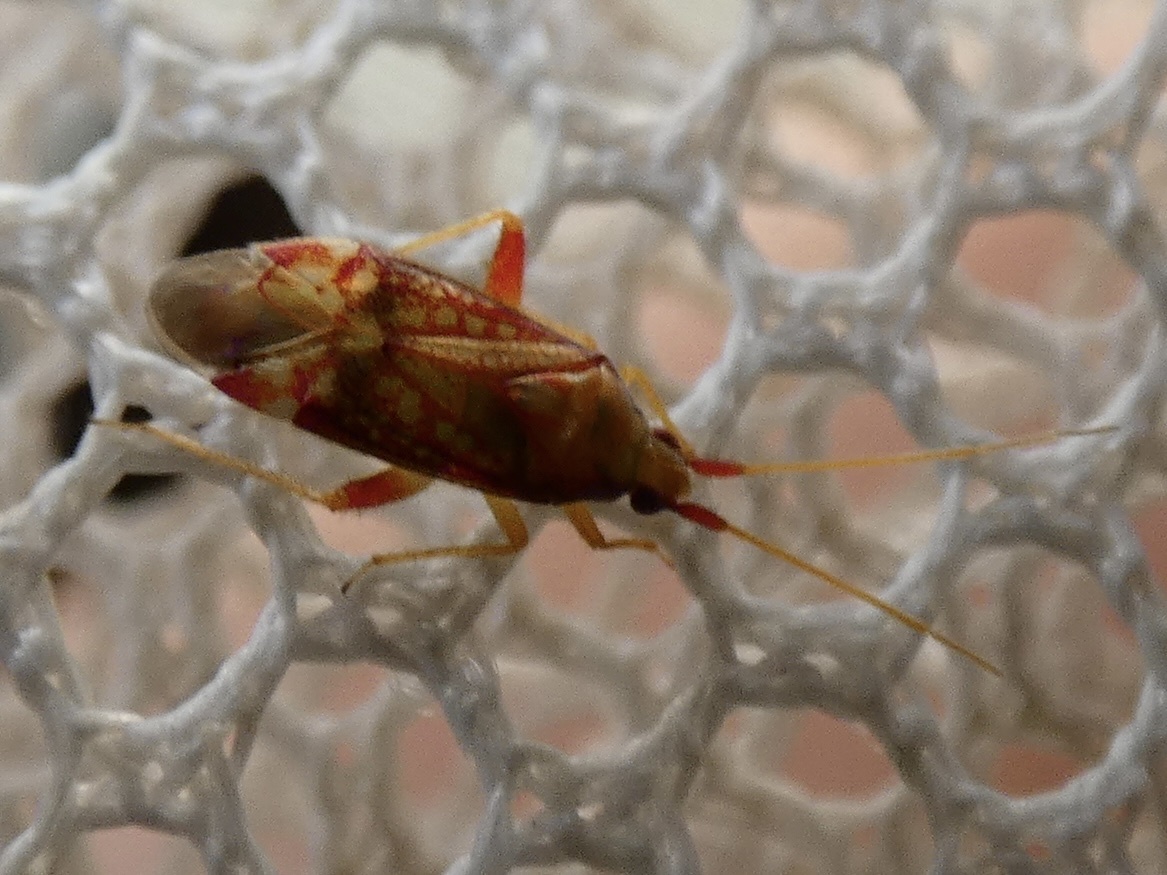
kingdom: Animalia
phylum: Arthropoda
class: Insecta
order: Hemiptera
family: Miridae
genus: Pseudoloxops
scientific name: Pseudoloxops coccineus
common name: Plant bug
